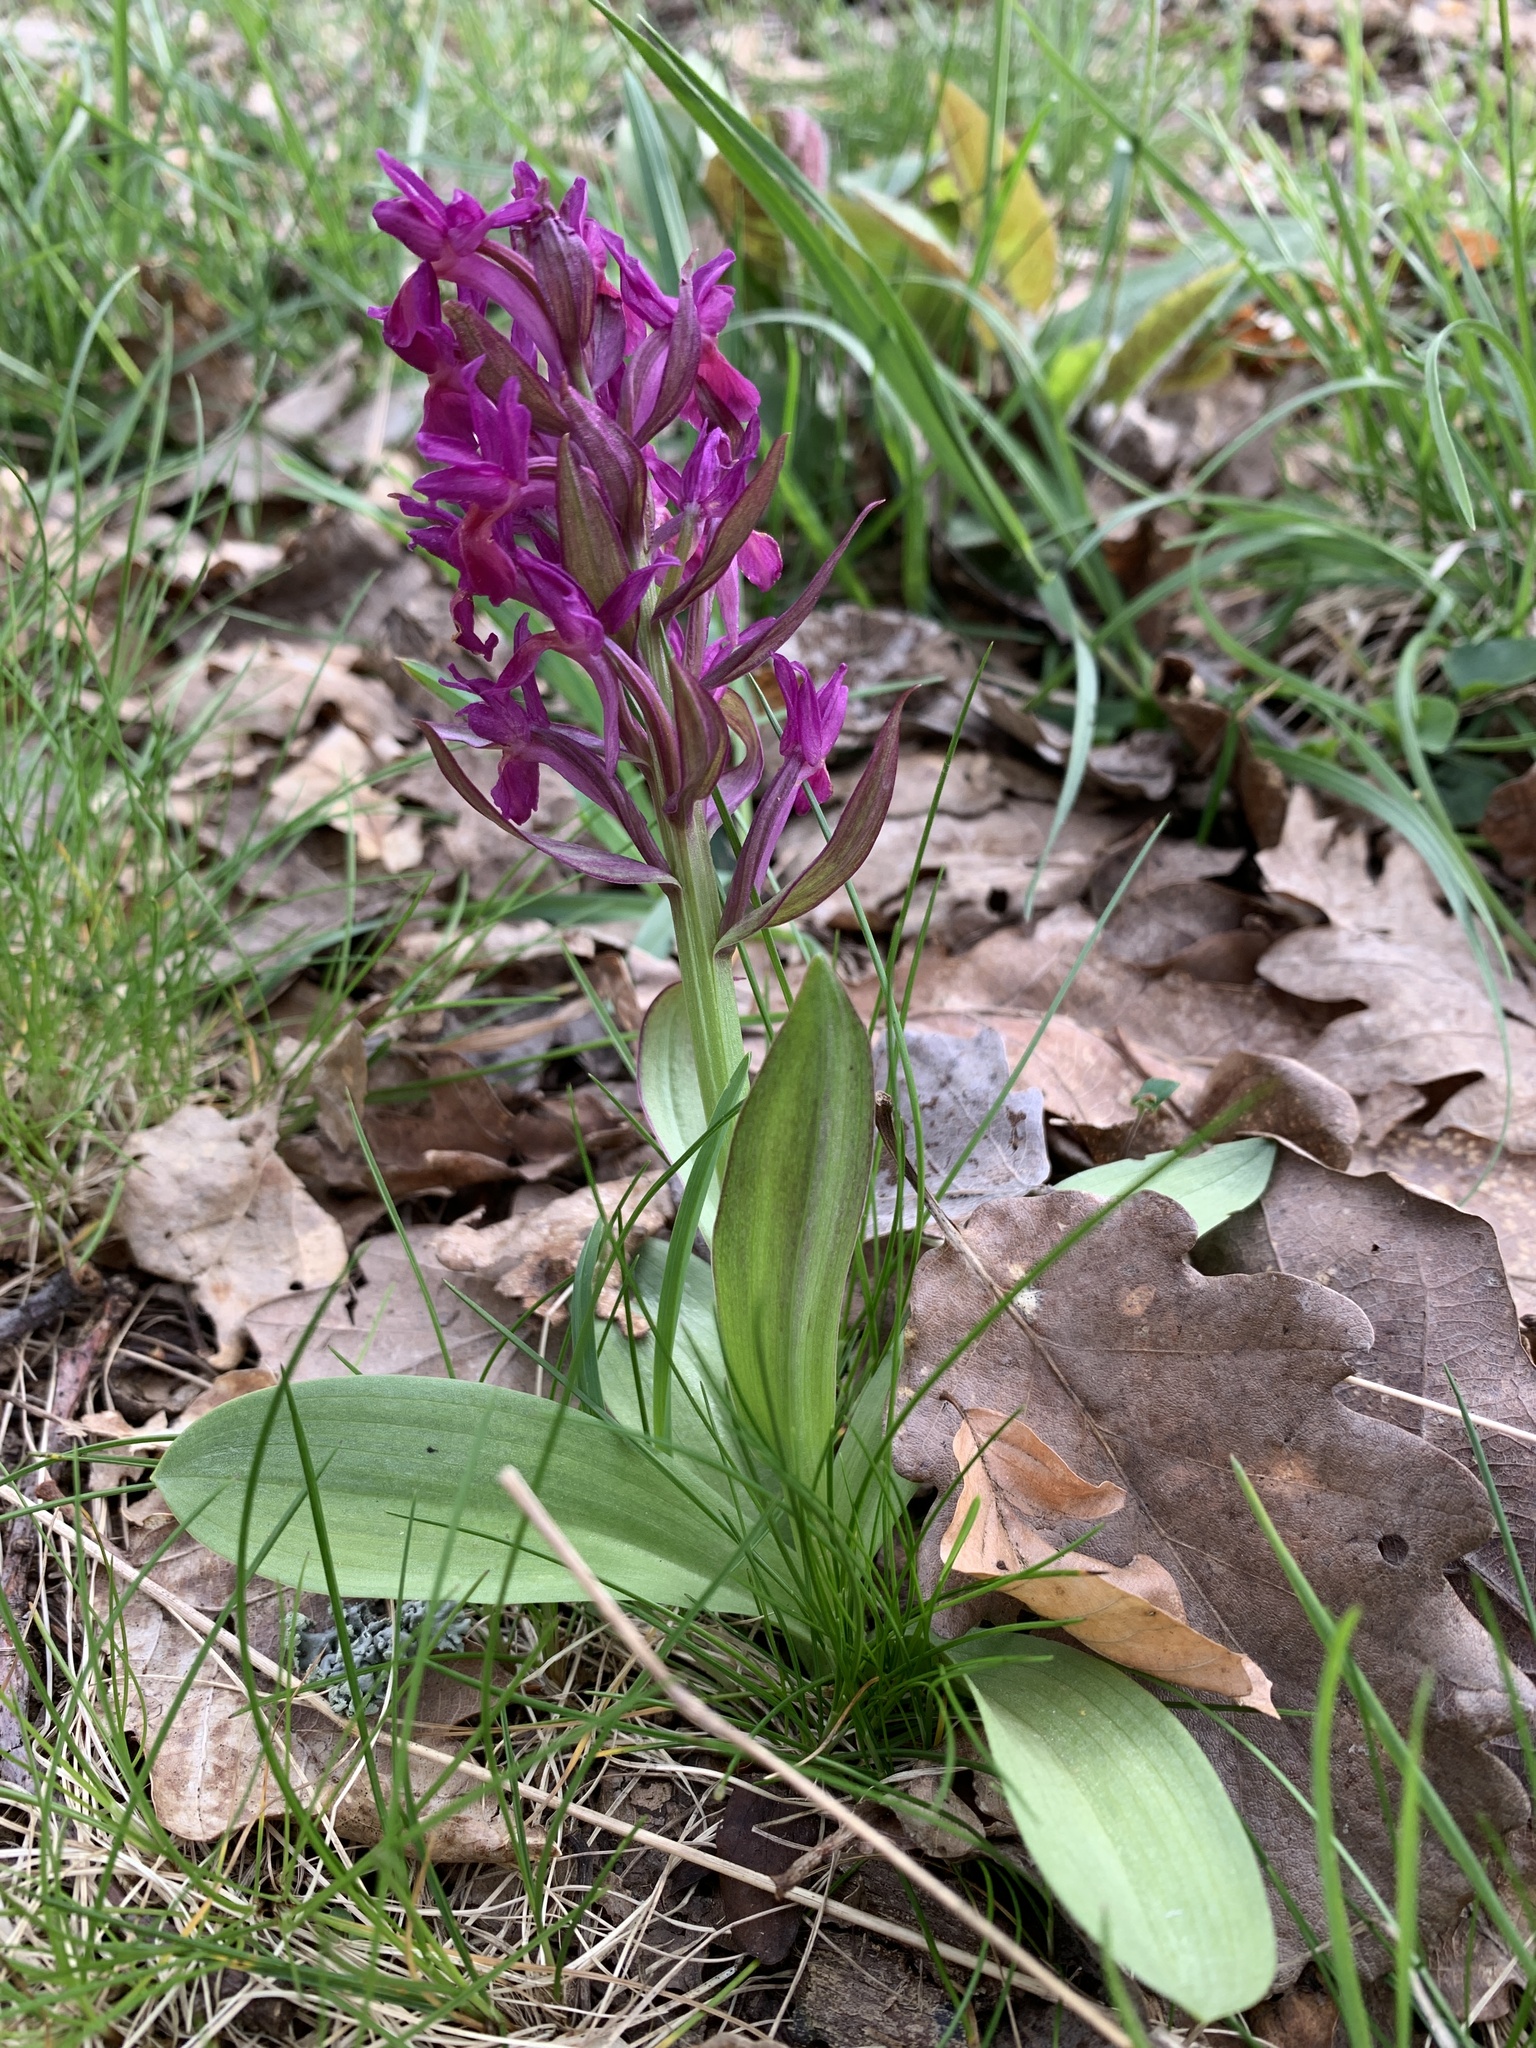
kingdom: Plantae
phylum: Tracheophyta
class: Liliopsida
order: Asparagales
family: Orchidaceae
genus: Dactylorhiza
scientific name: Dactylorhiza sambucina
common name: Elder-flowered orchid
